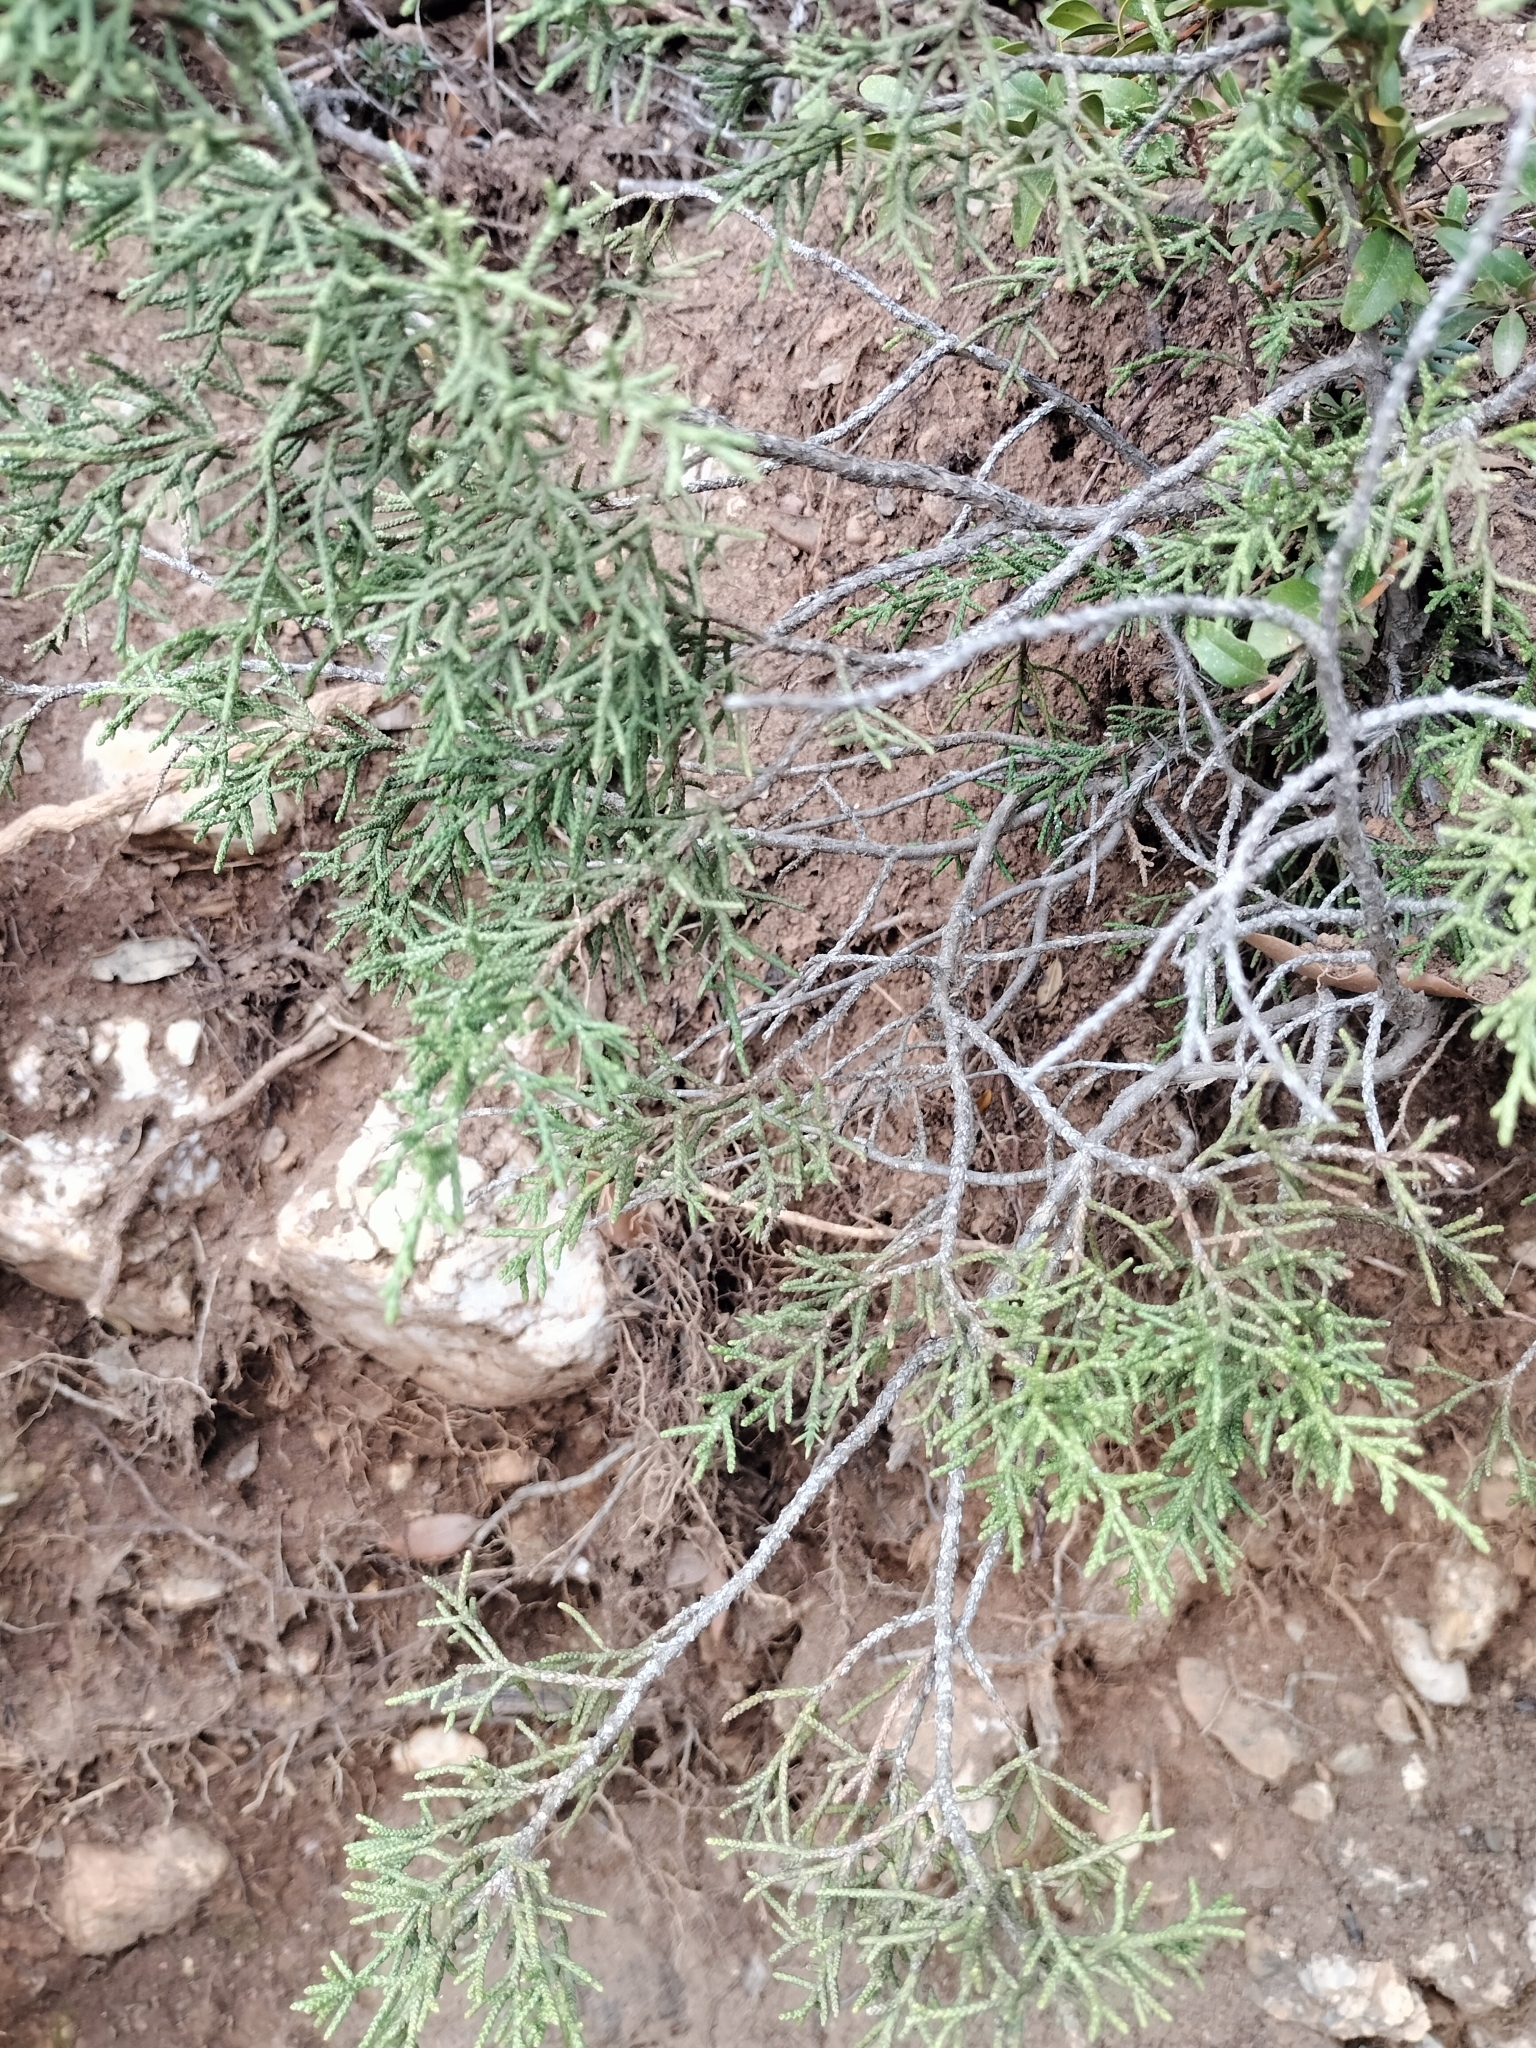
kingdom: Plantae
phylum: Tracheophyta
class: Pinopsida
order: Pinales
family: Cupressaceae
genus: Juniperus
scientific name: Juniperus phoenicea
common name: Phoenician juniper
